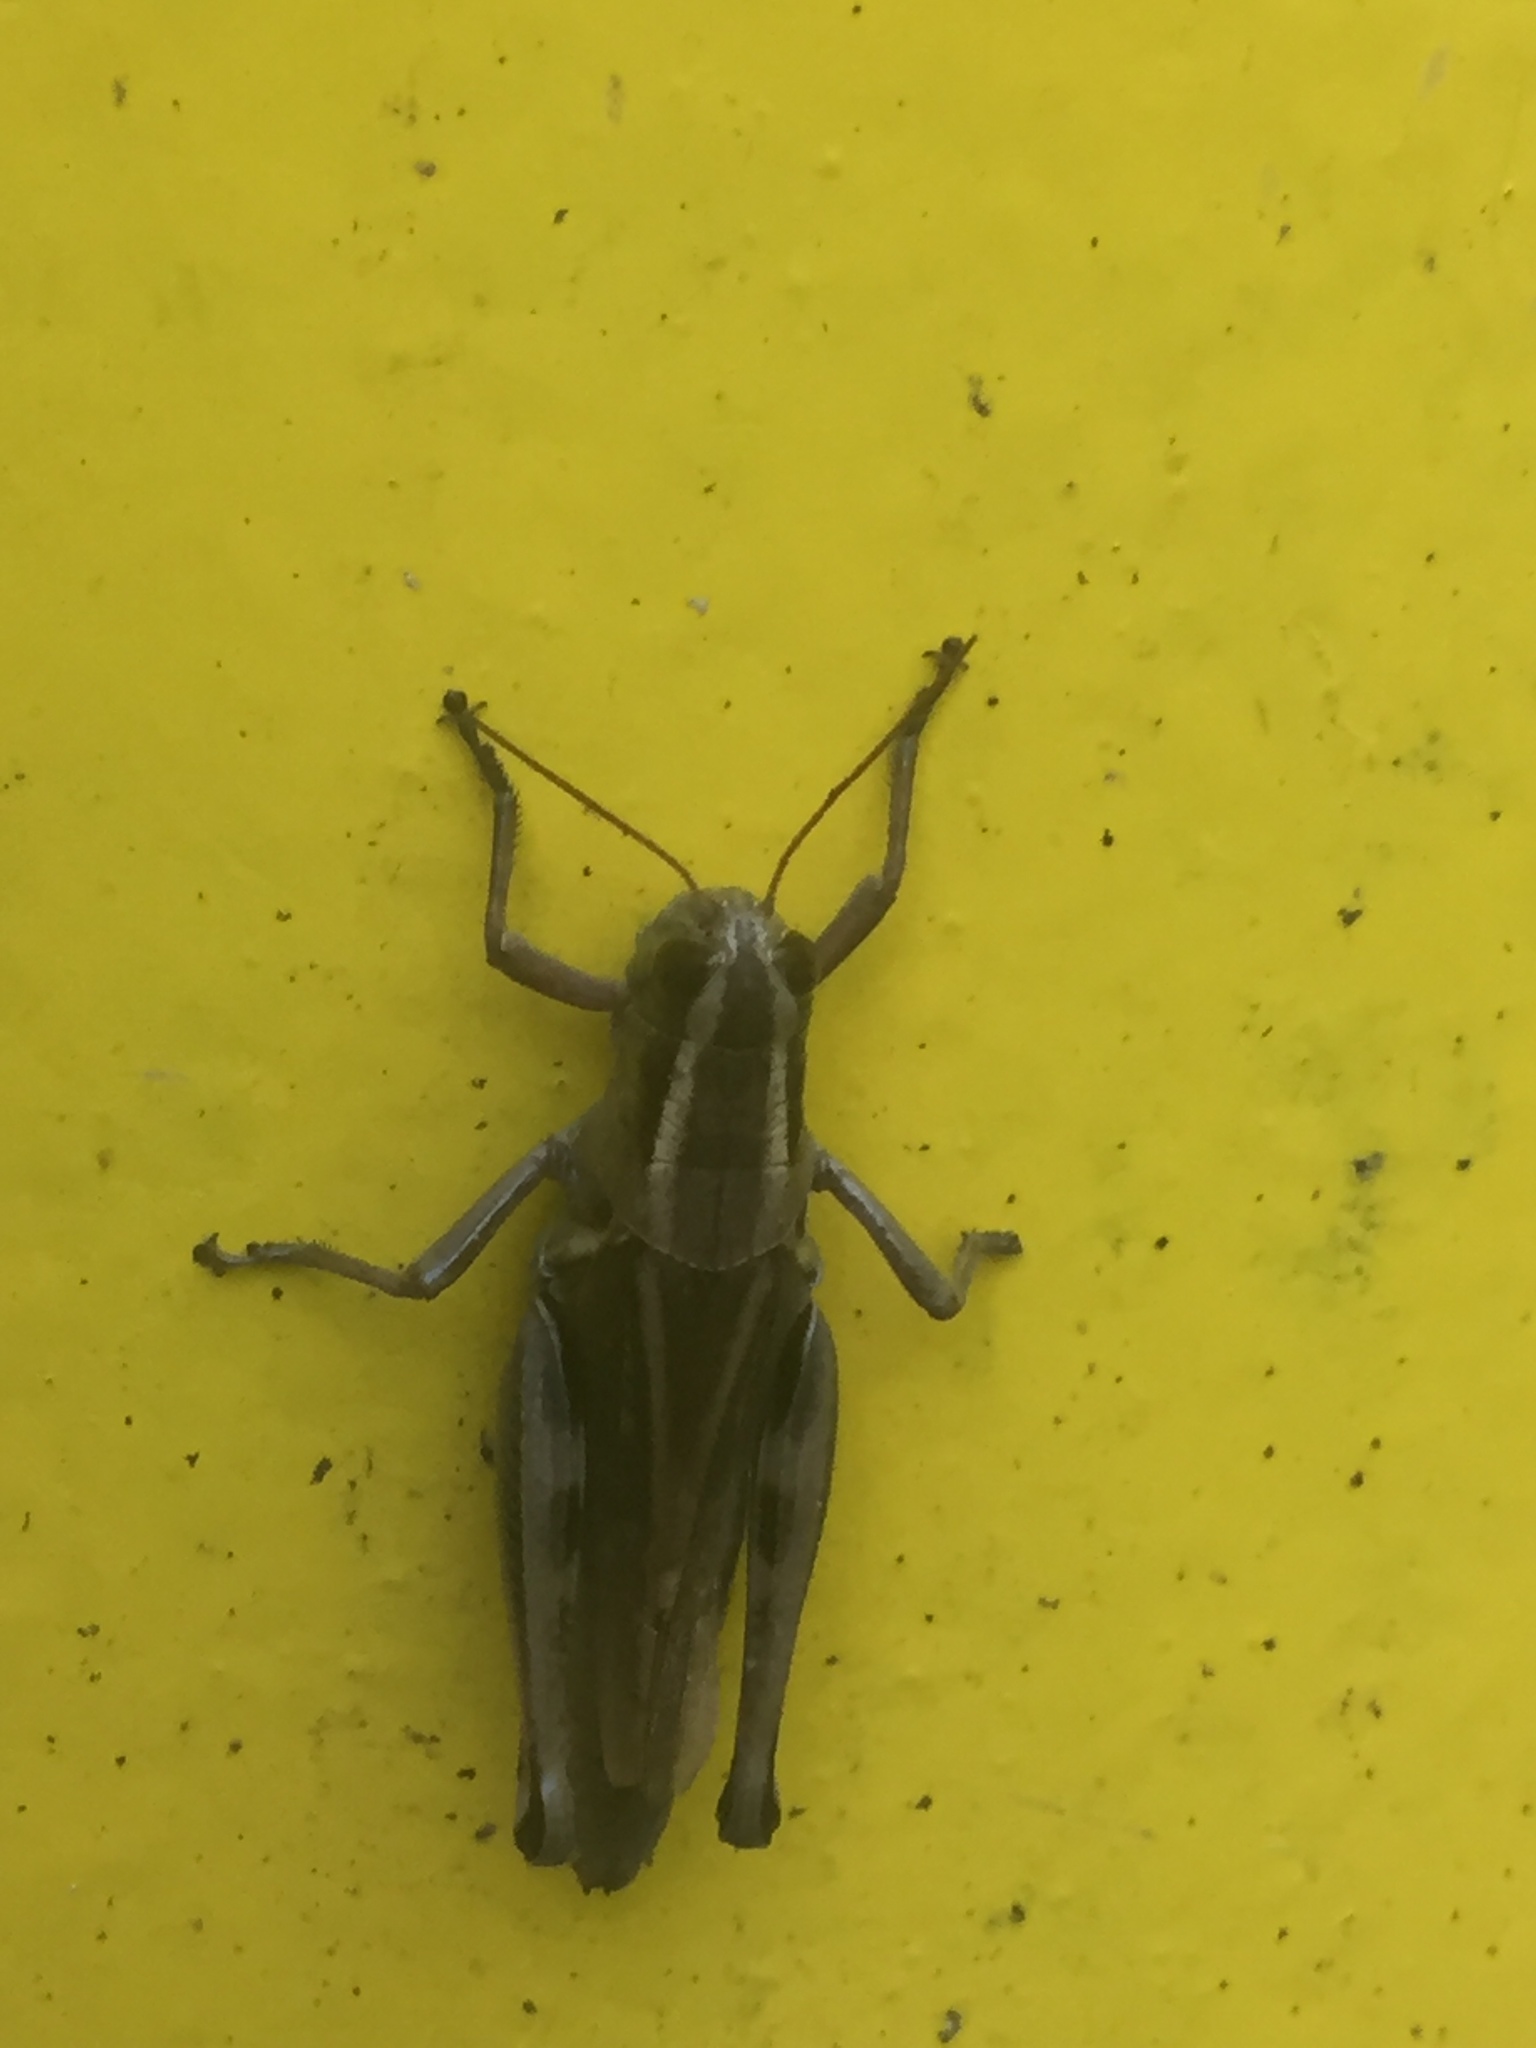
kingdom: Animalia
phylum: Arthropoda
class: Insecta
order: Orthoptera
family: Acrididae
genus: Melanoplus
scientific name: Melanoplus bivittatus
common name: Two-striped grasshopper
